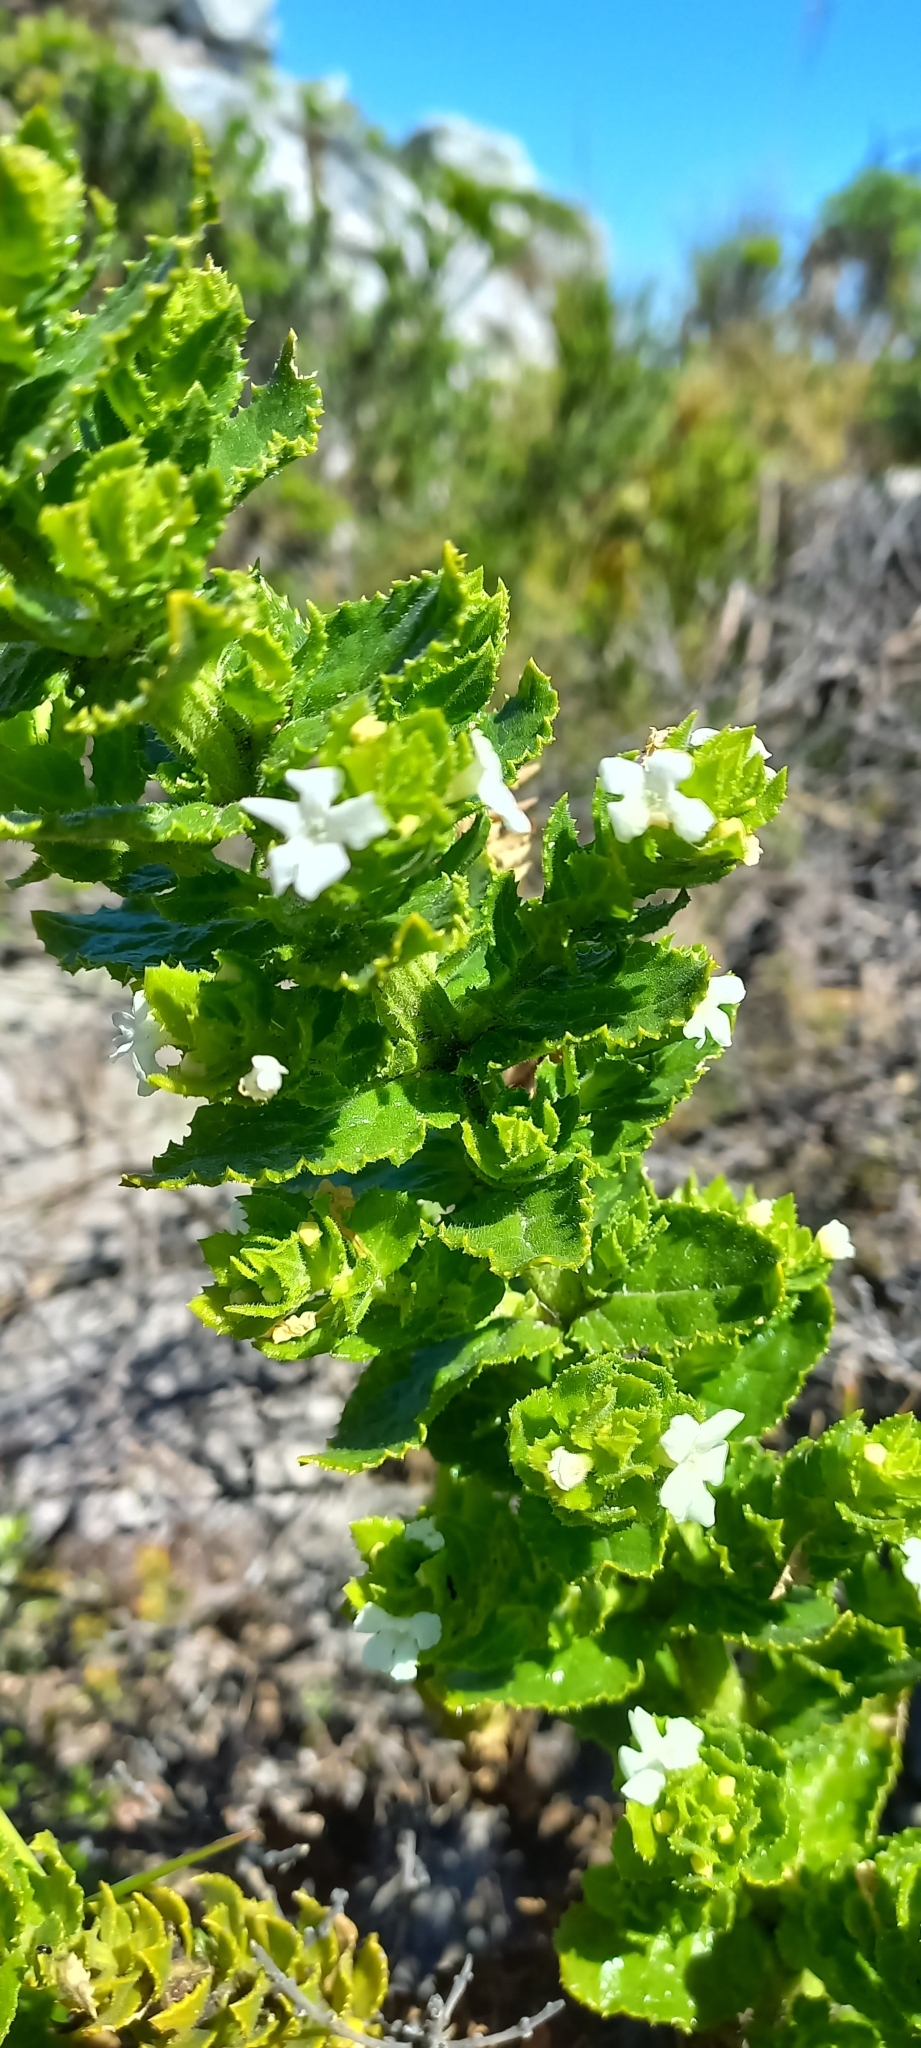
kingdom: Plantae
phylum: Tracheophyta
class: Magnoliopsida
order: Lamiales
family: Scrophulariaceae
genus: Oftia
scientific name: Oftia africana
